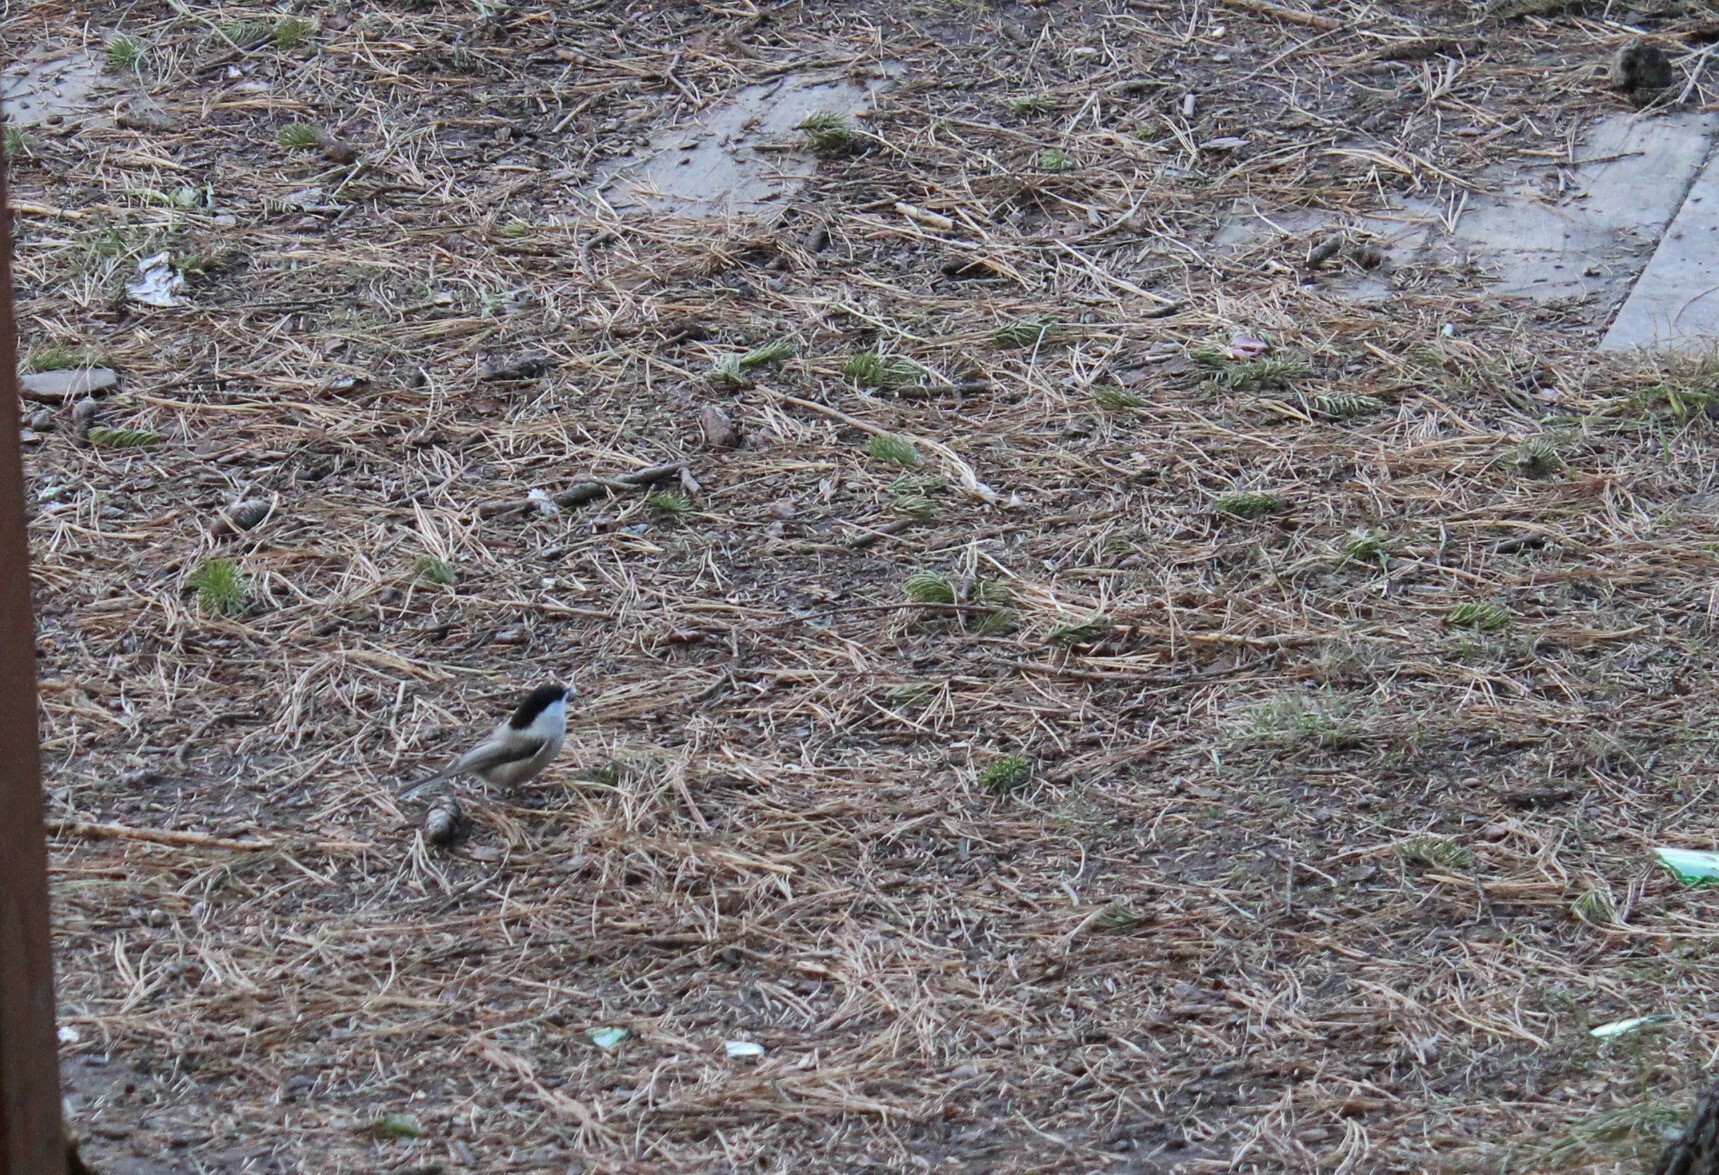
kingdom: Animalia
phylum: Chordata
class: Aves
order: Passeriformes
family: Paridae
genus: Poecile
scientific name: Poecile montanus
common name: Willow tit
